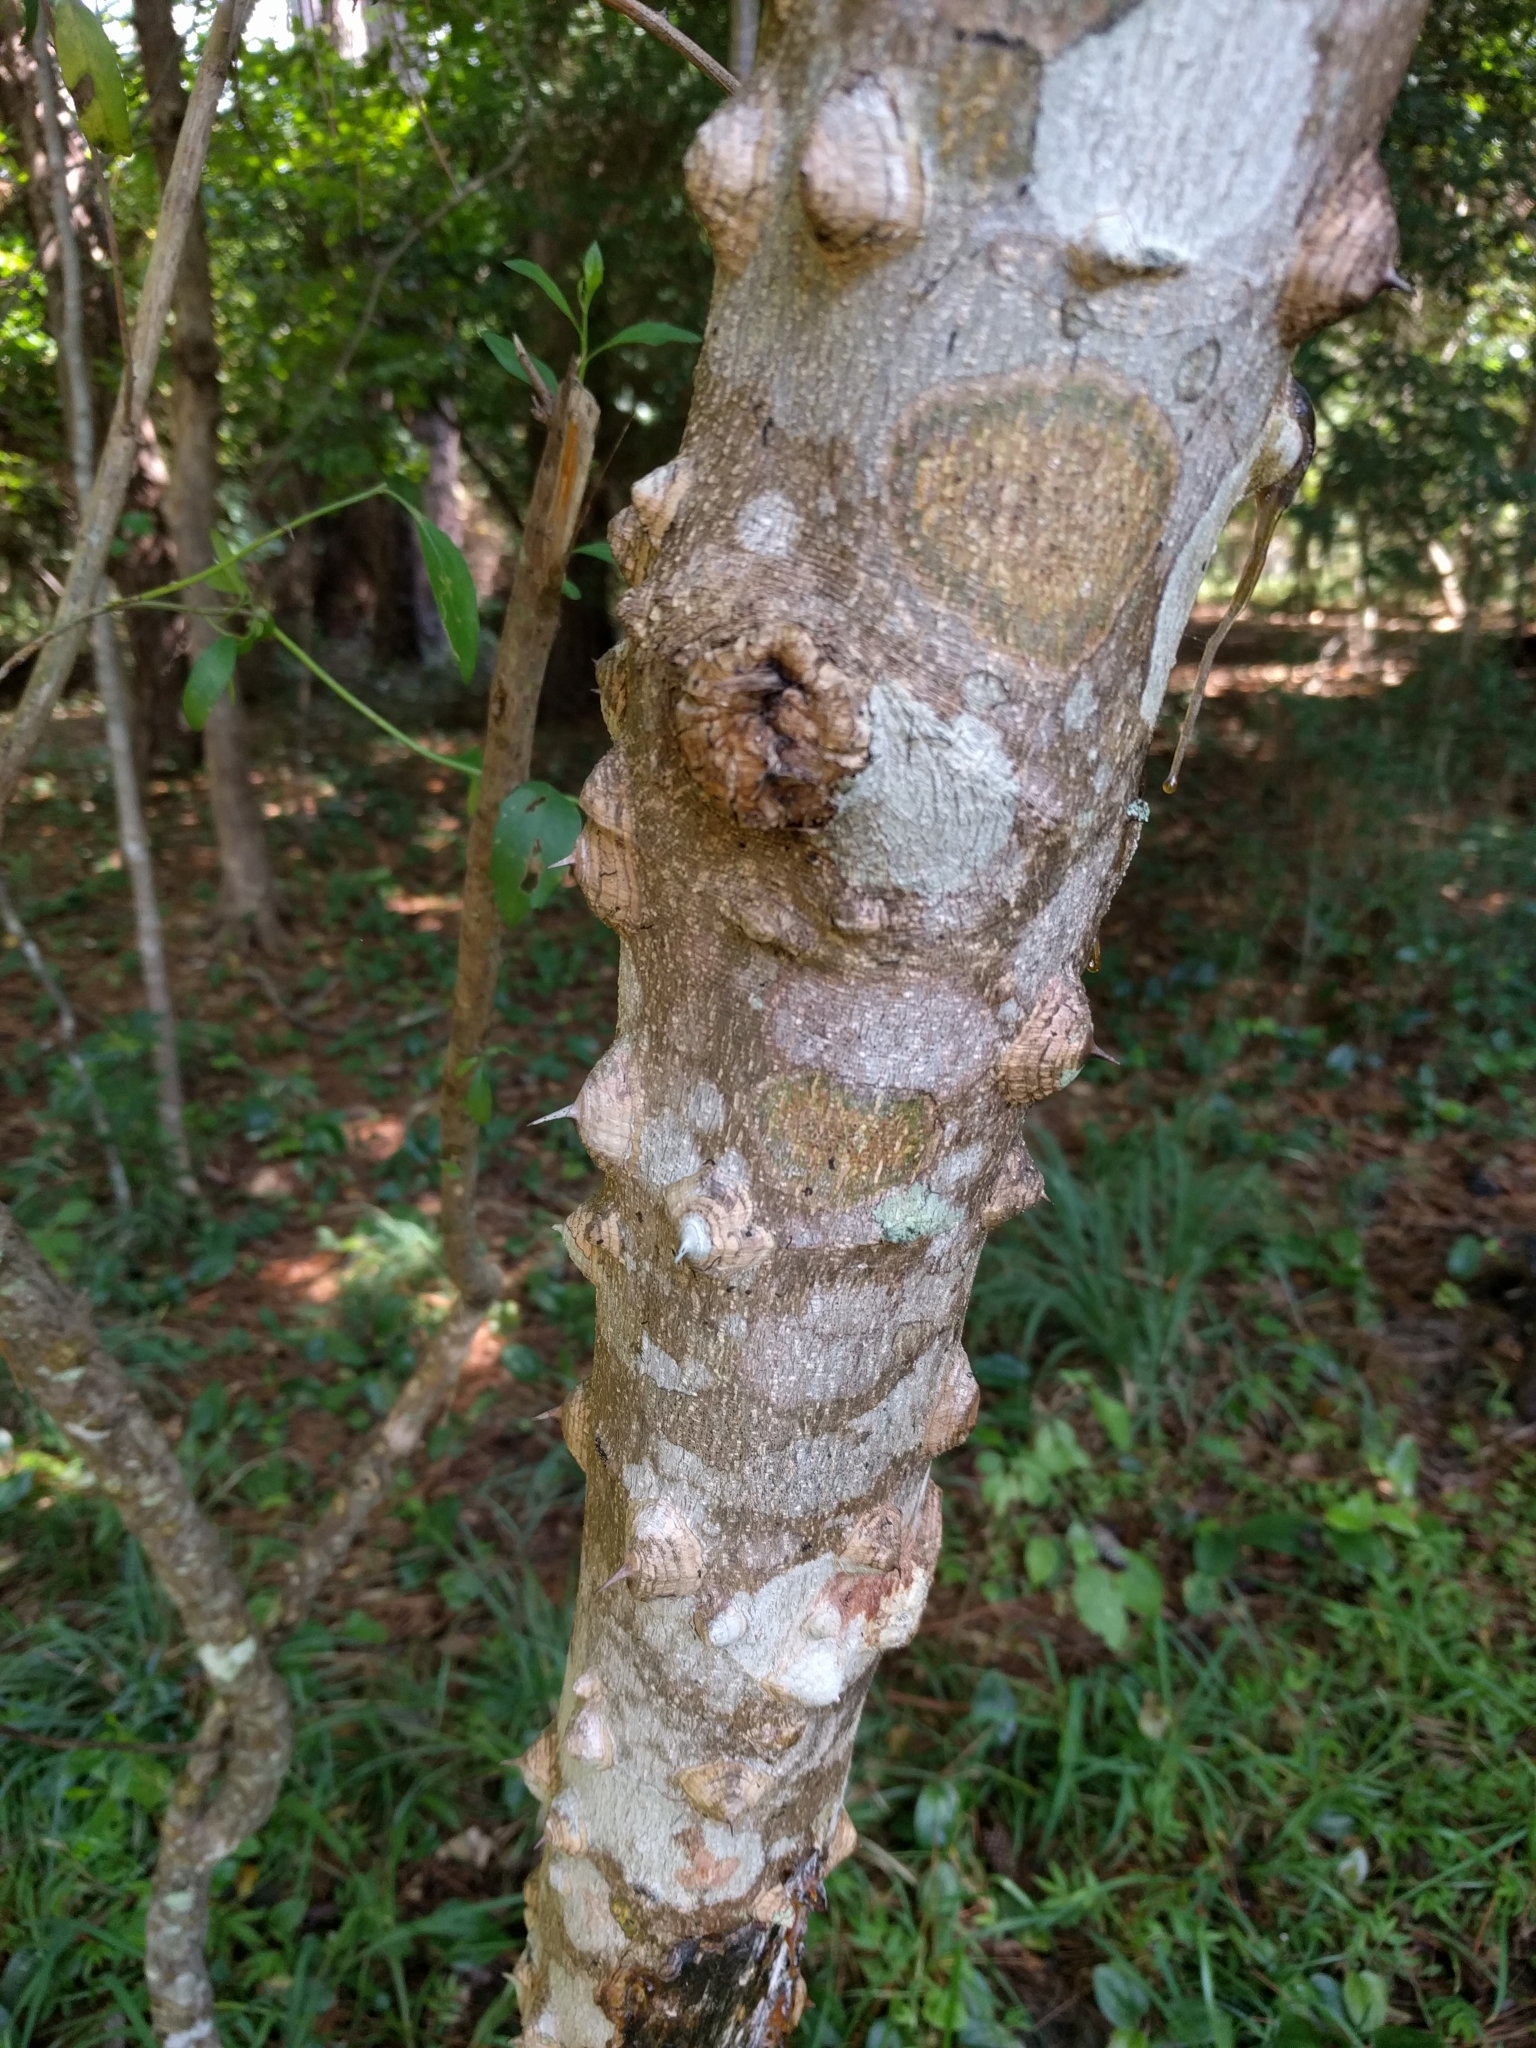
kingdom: Plantae
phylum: Tracheophyta
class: Magnoliopsida
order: Sapindales
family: Rutaceae
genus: Zanthoxylum
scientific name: Zanthoxylum clava-herculis
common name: Hercules'-club
